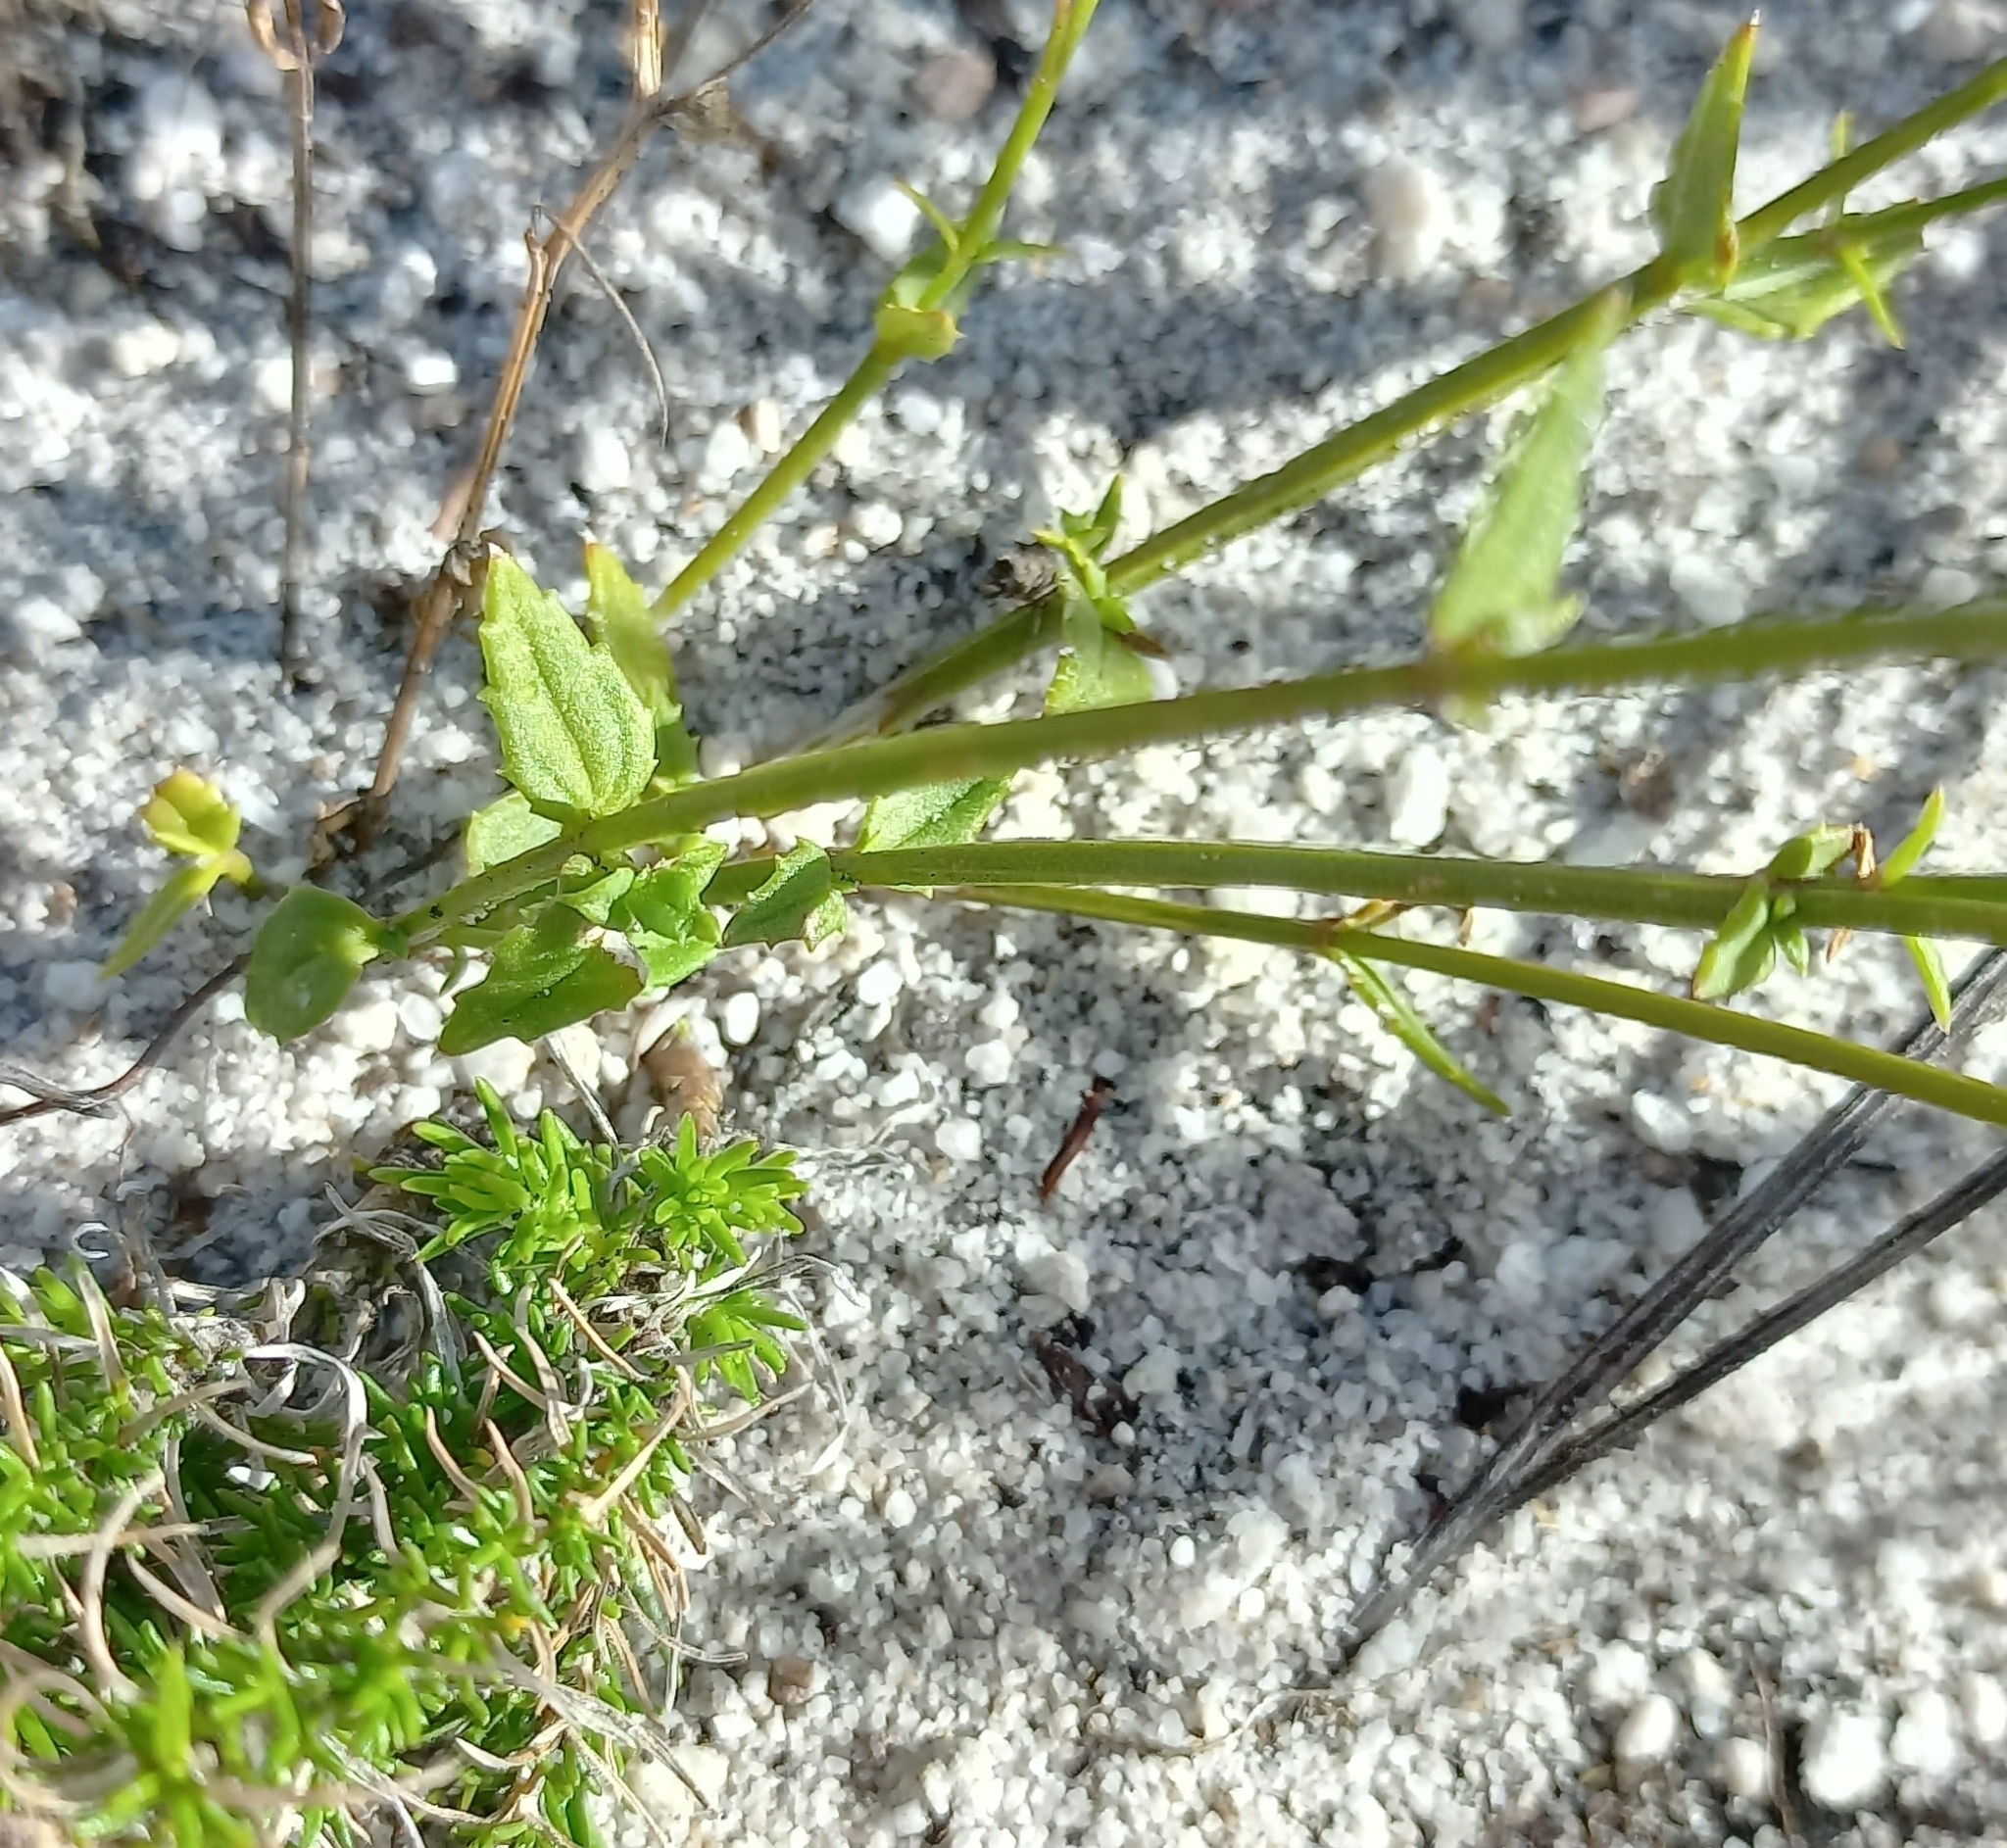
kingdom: Plantae
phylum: Tracheophyta
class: Magnoliopsida
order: Lamiales
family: Scrophulariaceae
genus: Nemesia
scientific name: Nemesia diffusa
